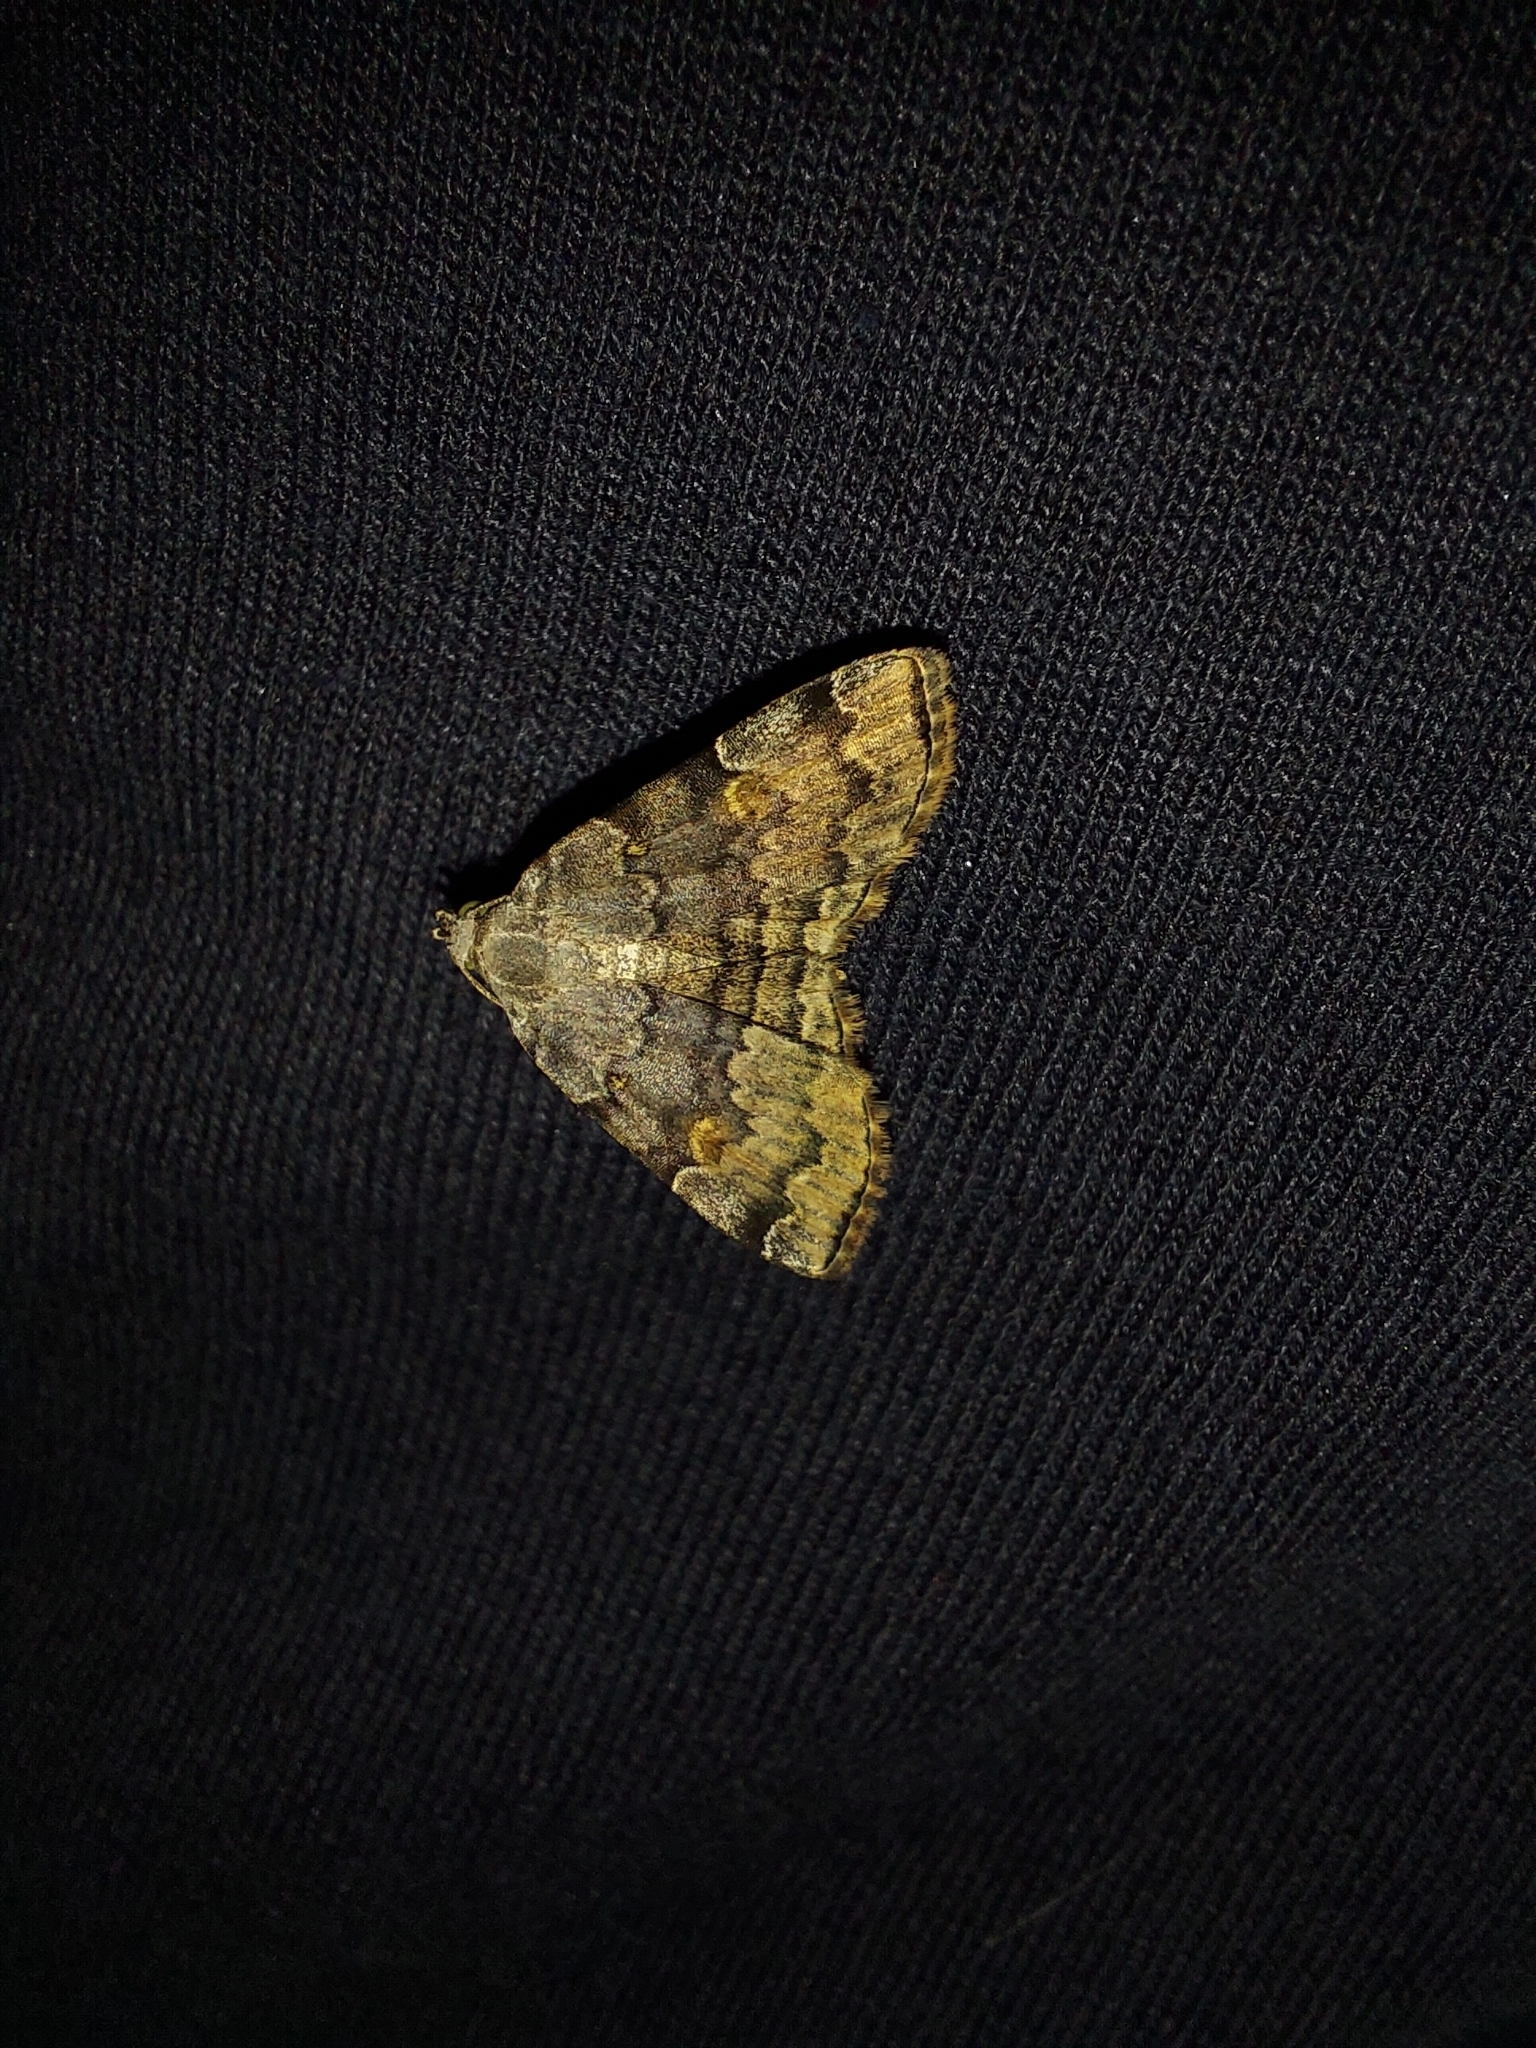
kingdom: Animalia
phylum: Arthropoda
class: Insecta
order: Lepidoptera
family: Erebidae
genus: Idia
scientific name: Idia americalis
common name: American idia moth
